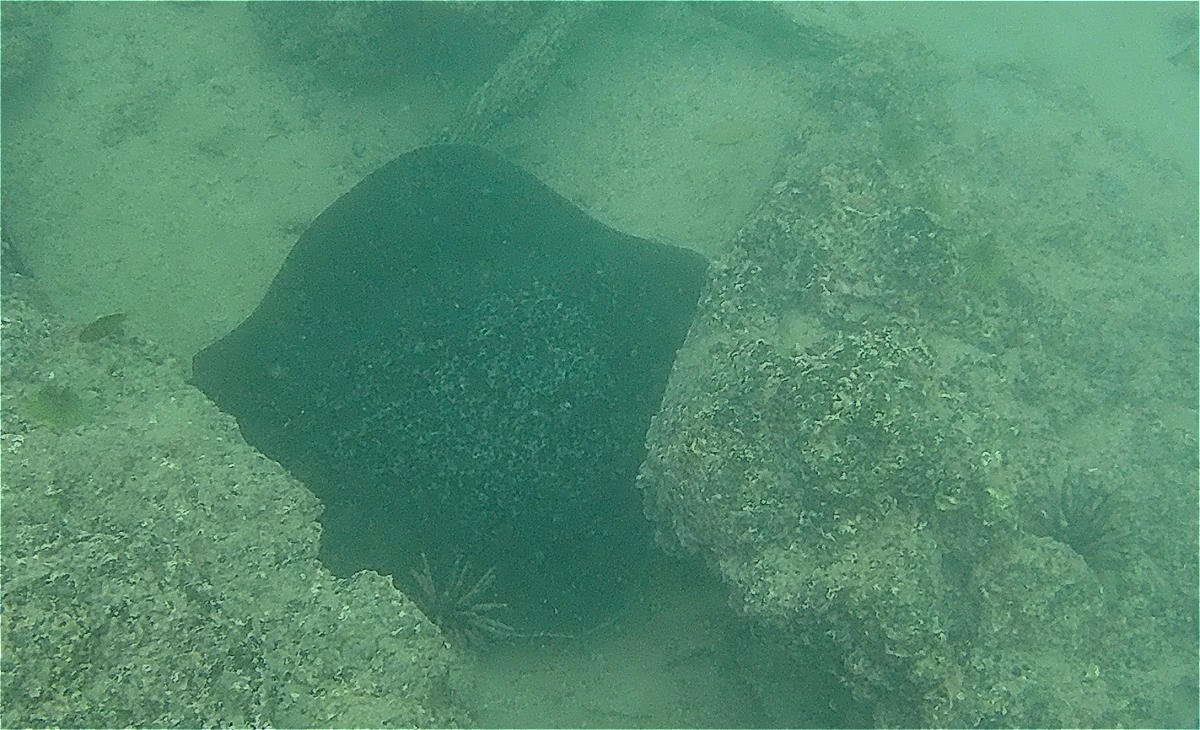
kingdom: Animalia
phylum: Chordata
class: Elasmobranchii
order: Myliobatiformes
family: Dasyatidae
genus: Taeniurops
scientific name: Taeniurops meyeni
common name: Black-blotched stingray
